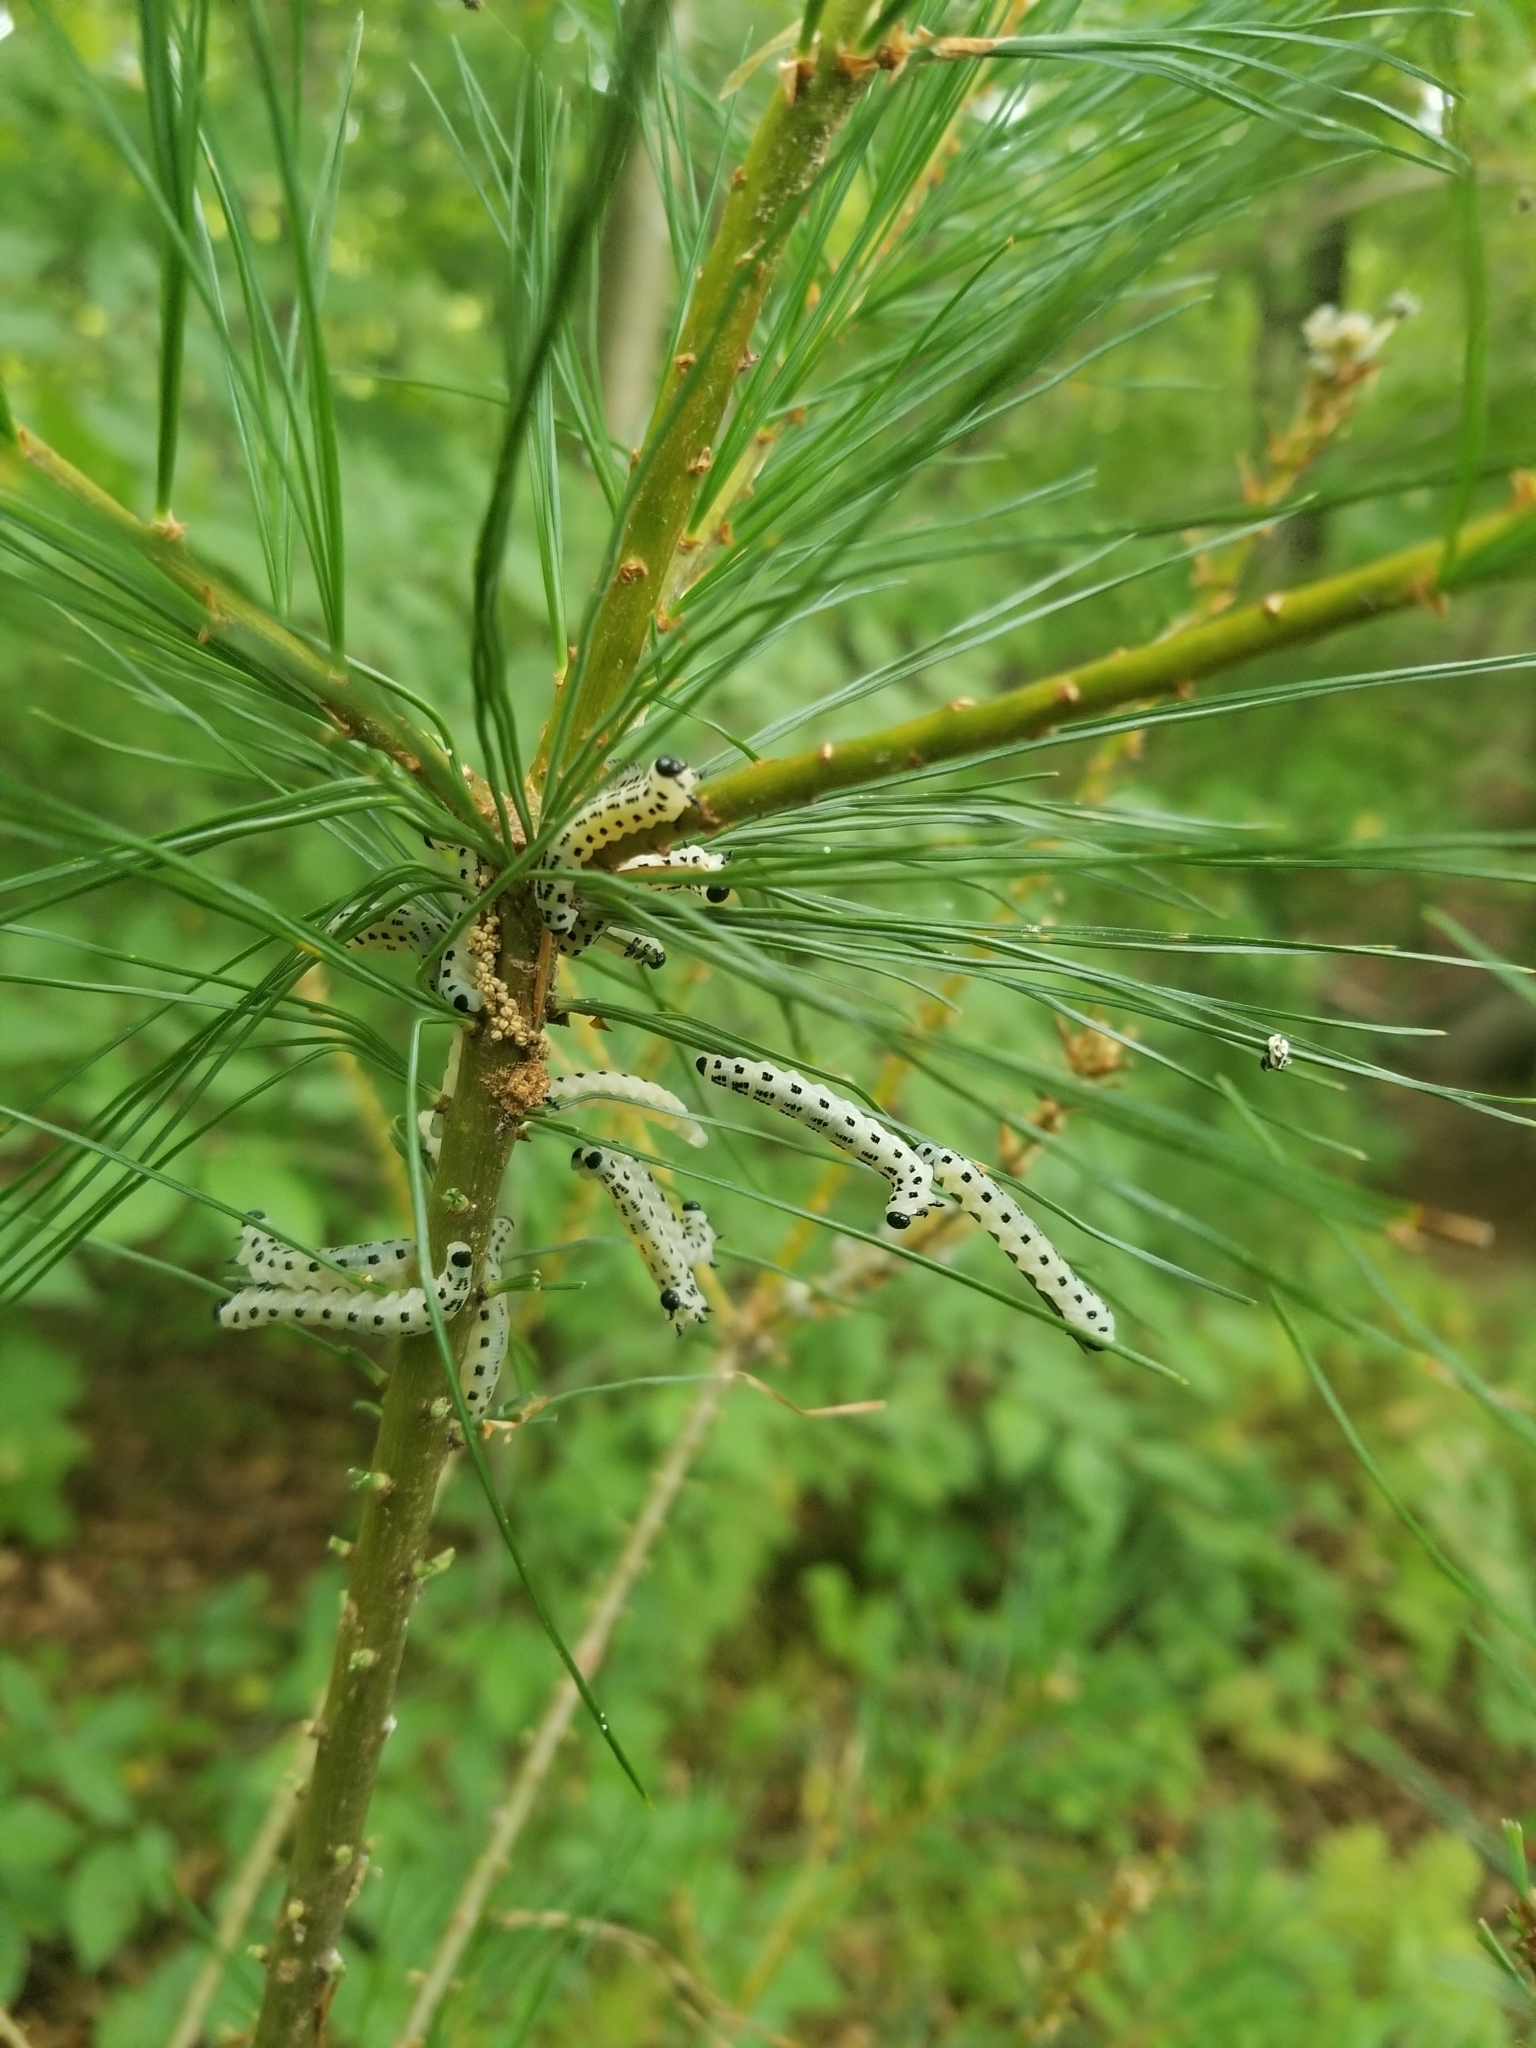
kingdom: Animalia
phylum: Arthropoda
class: Insecta
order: Hymenoptera
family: Diprionidae
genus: Neodiprion
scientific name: Neodiprion pinetum
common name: White pine sawfly
